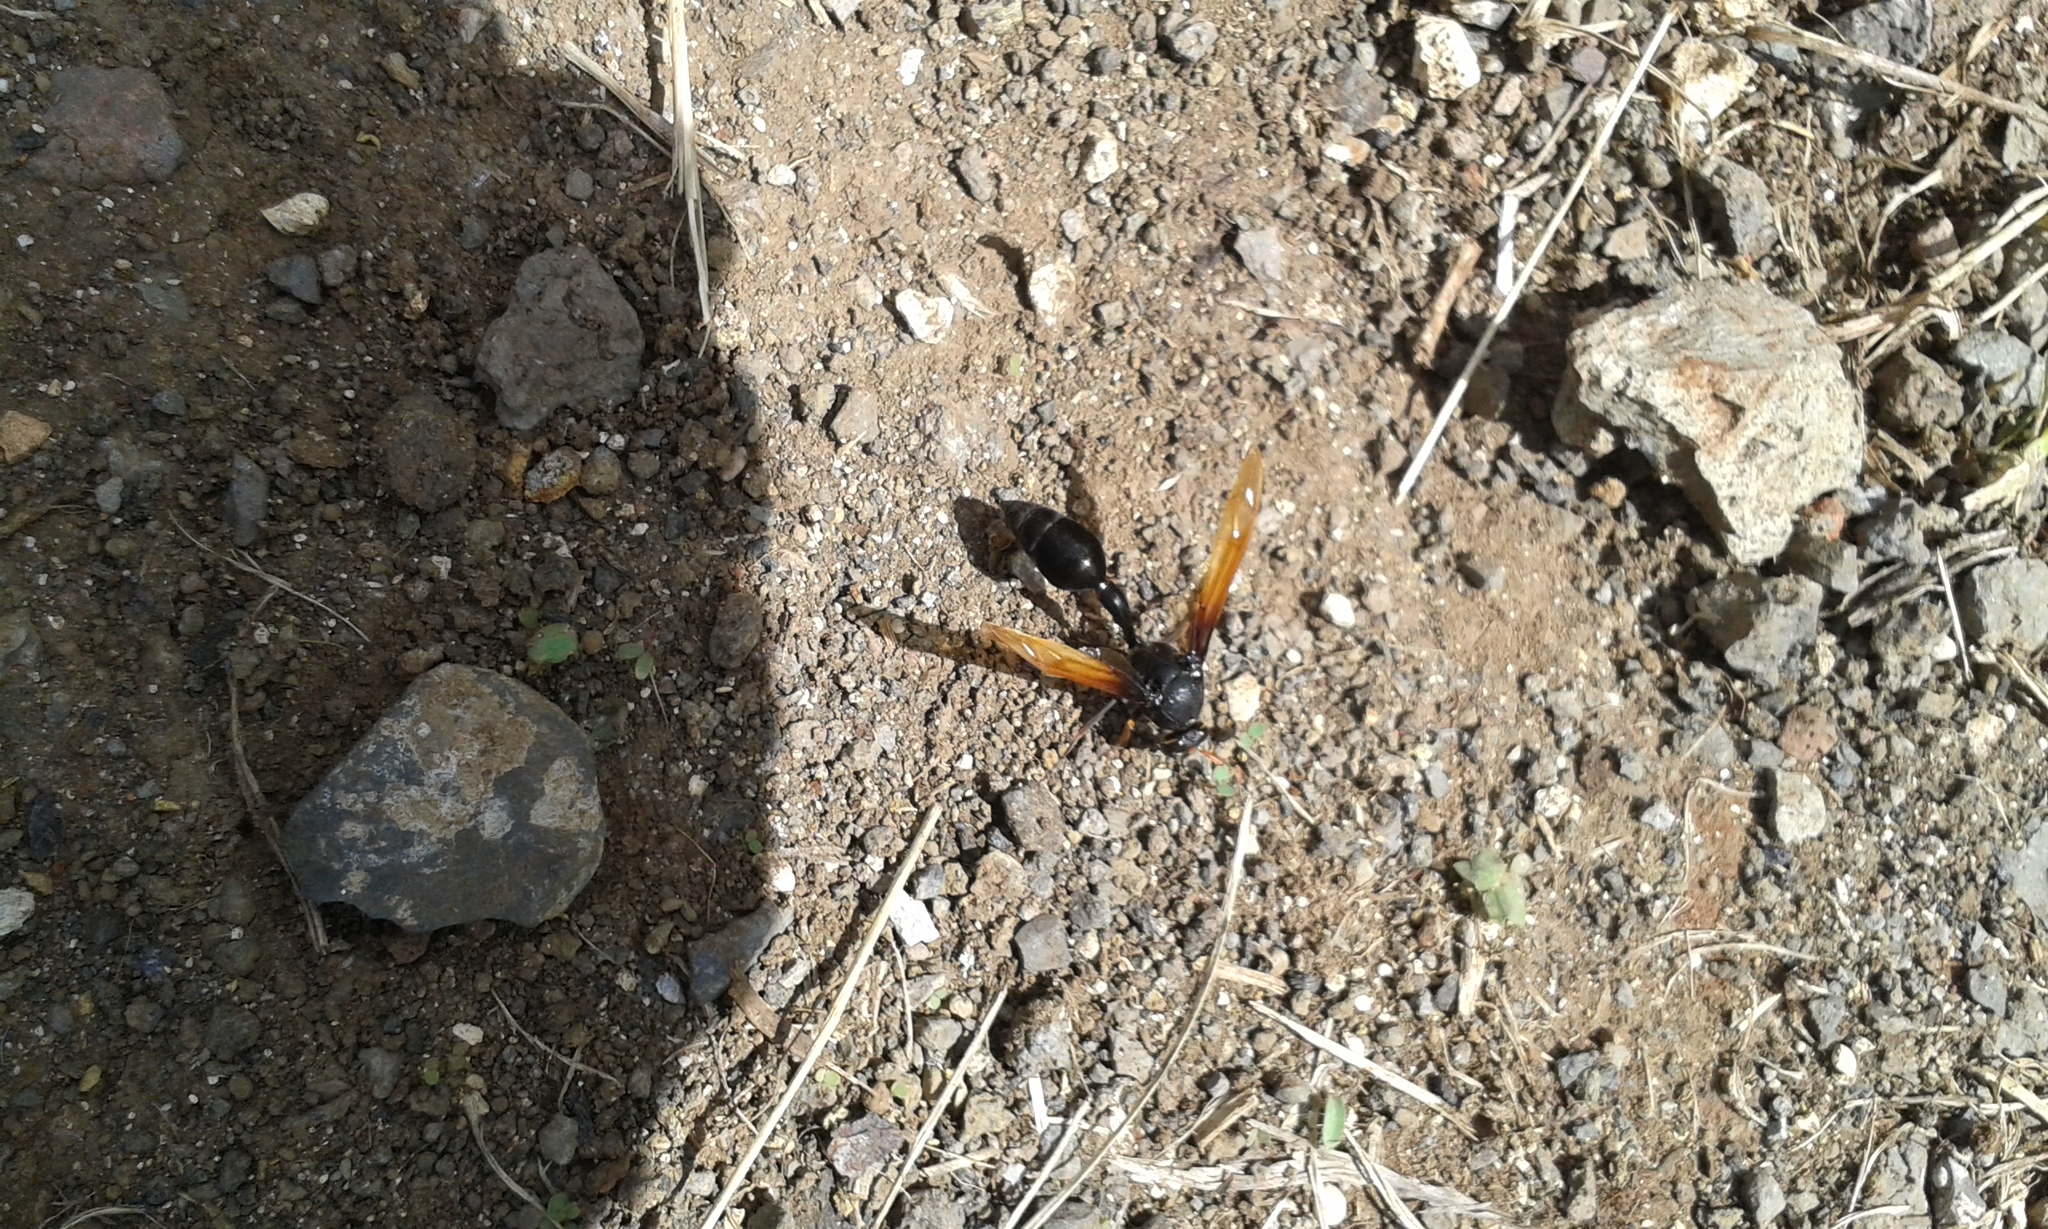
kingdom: Animalia
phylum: Arthropoda
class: Insecta
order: Hymenoptera
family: Eumenidae
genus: Delta
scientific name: Delta pyriforme
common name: Wasp
